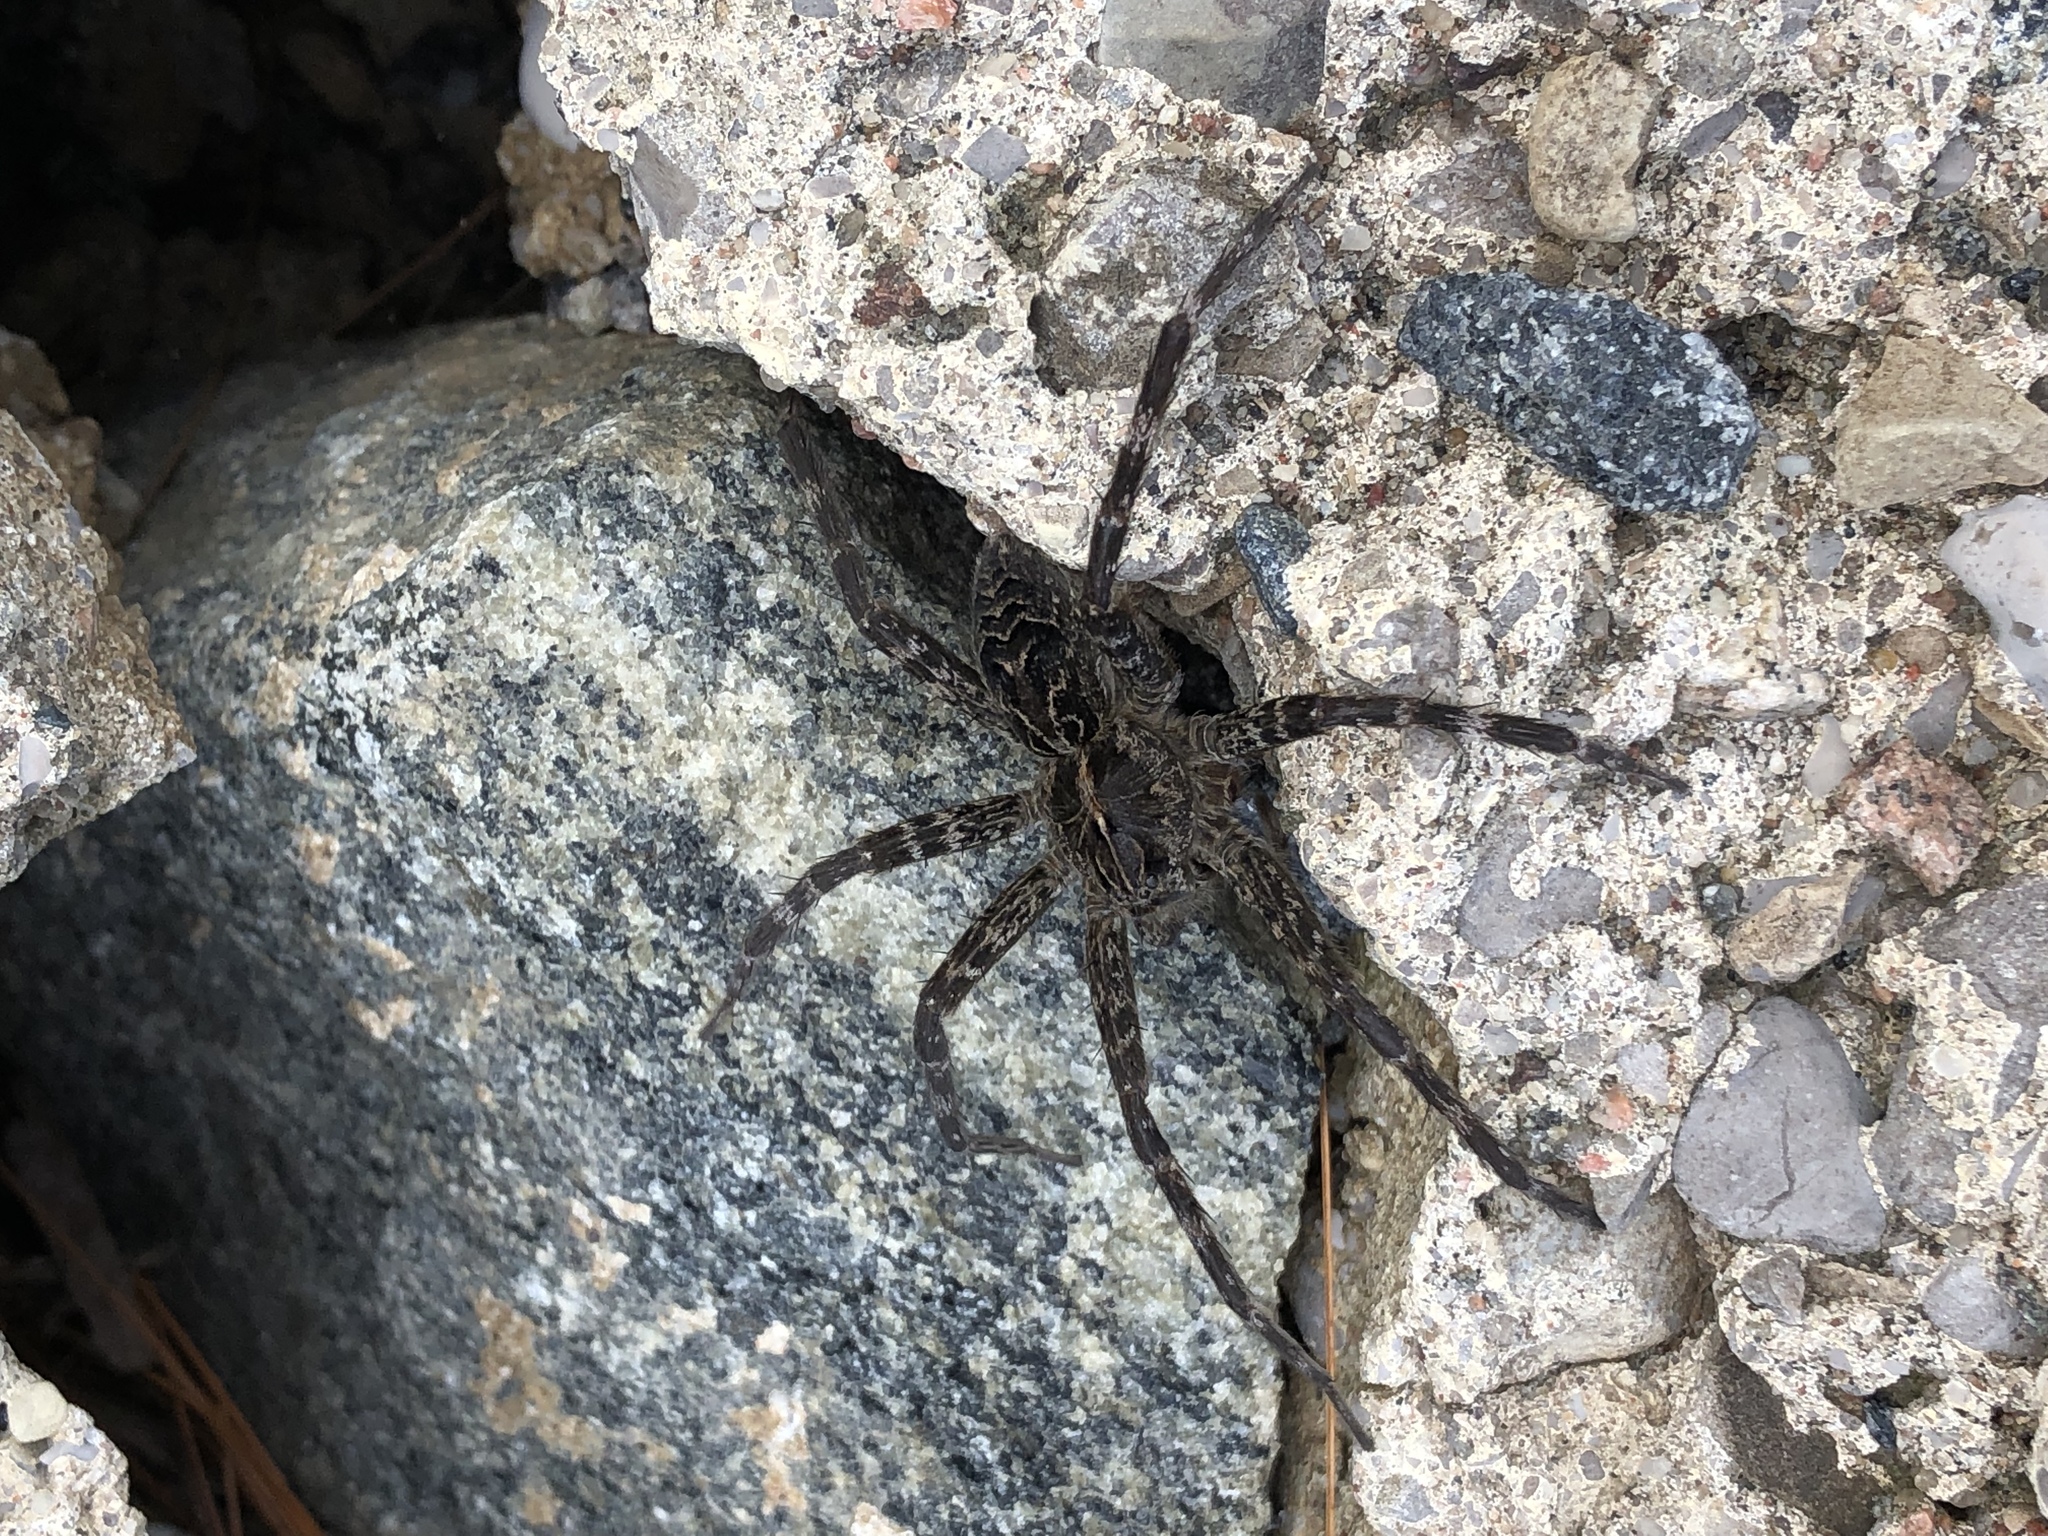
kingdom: Animalia
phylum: Arthropoda
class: Arachnida
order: Araneae
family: Pisauridae
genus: Dolomedes
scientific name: Dolomedes scriptus
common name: Striped fishing spider
